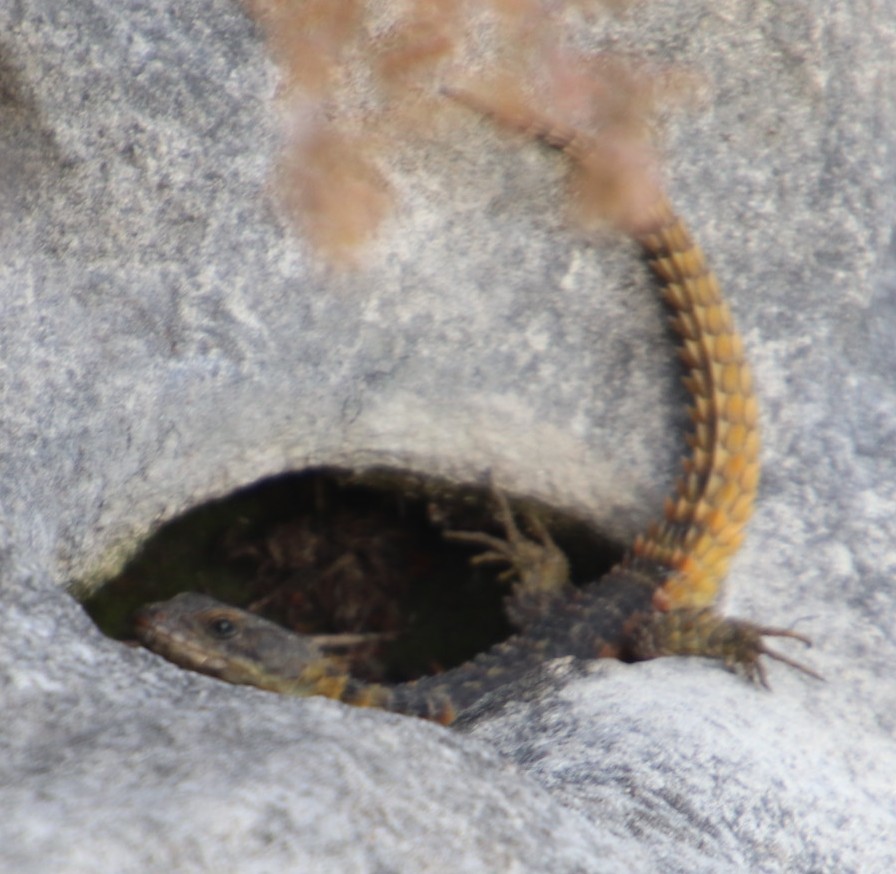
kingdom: Animalia
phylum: Chordata
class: Squamata
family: Cordylidae
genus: Cordylus
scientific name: Cordylus cordylus
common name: Cape girdled lizard
